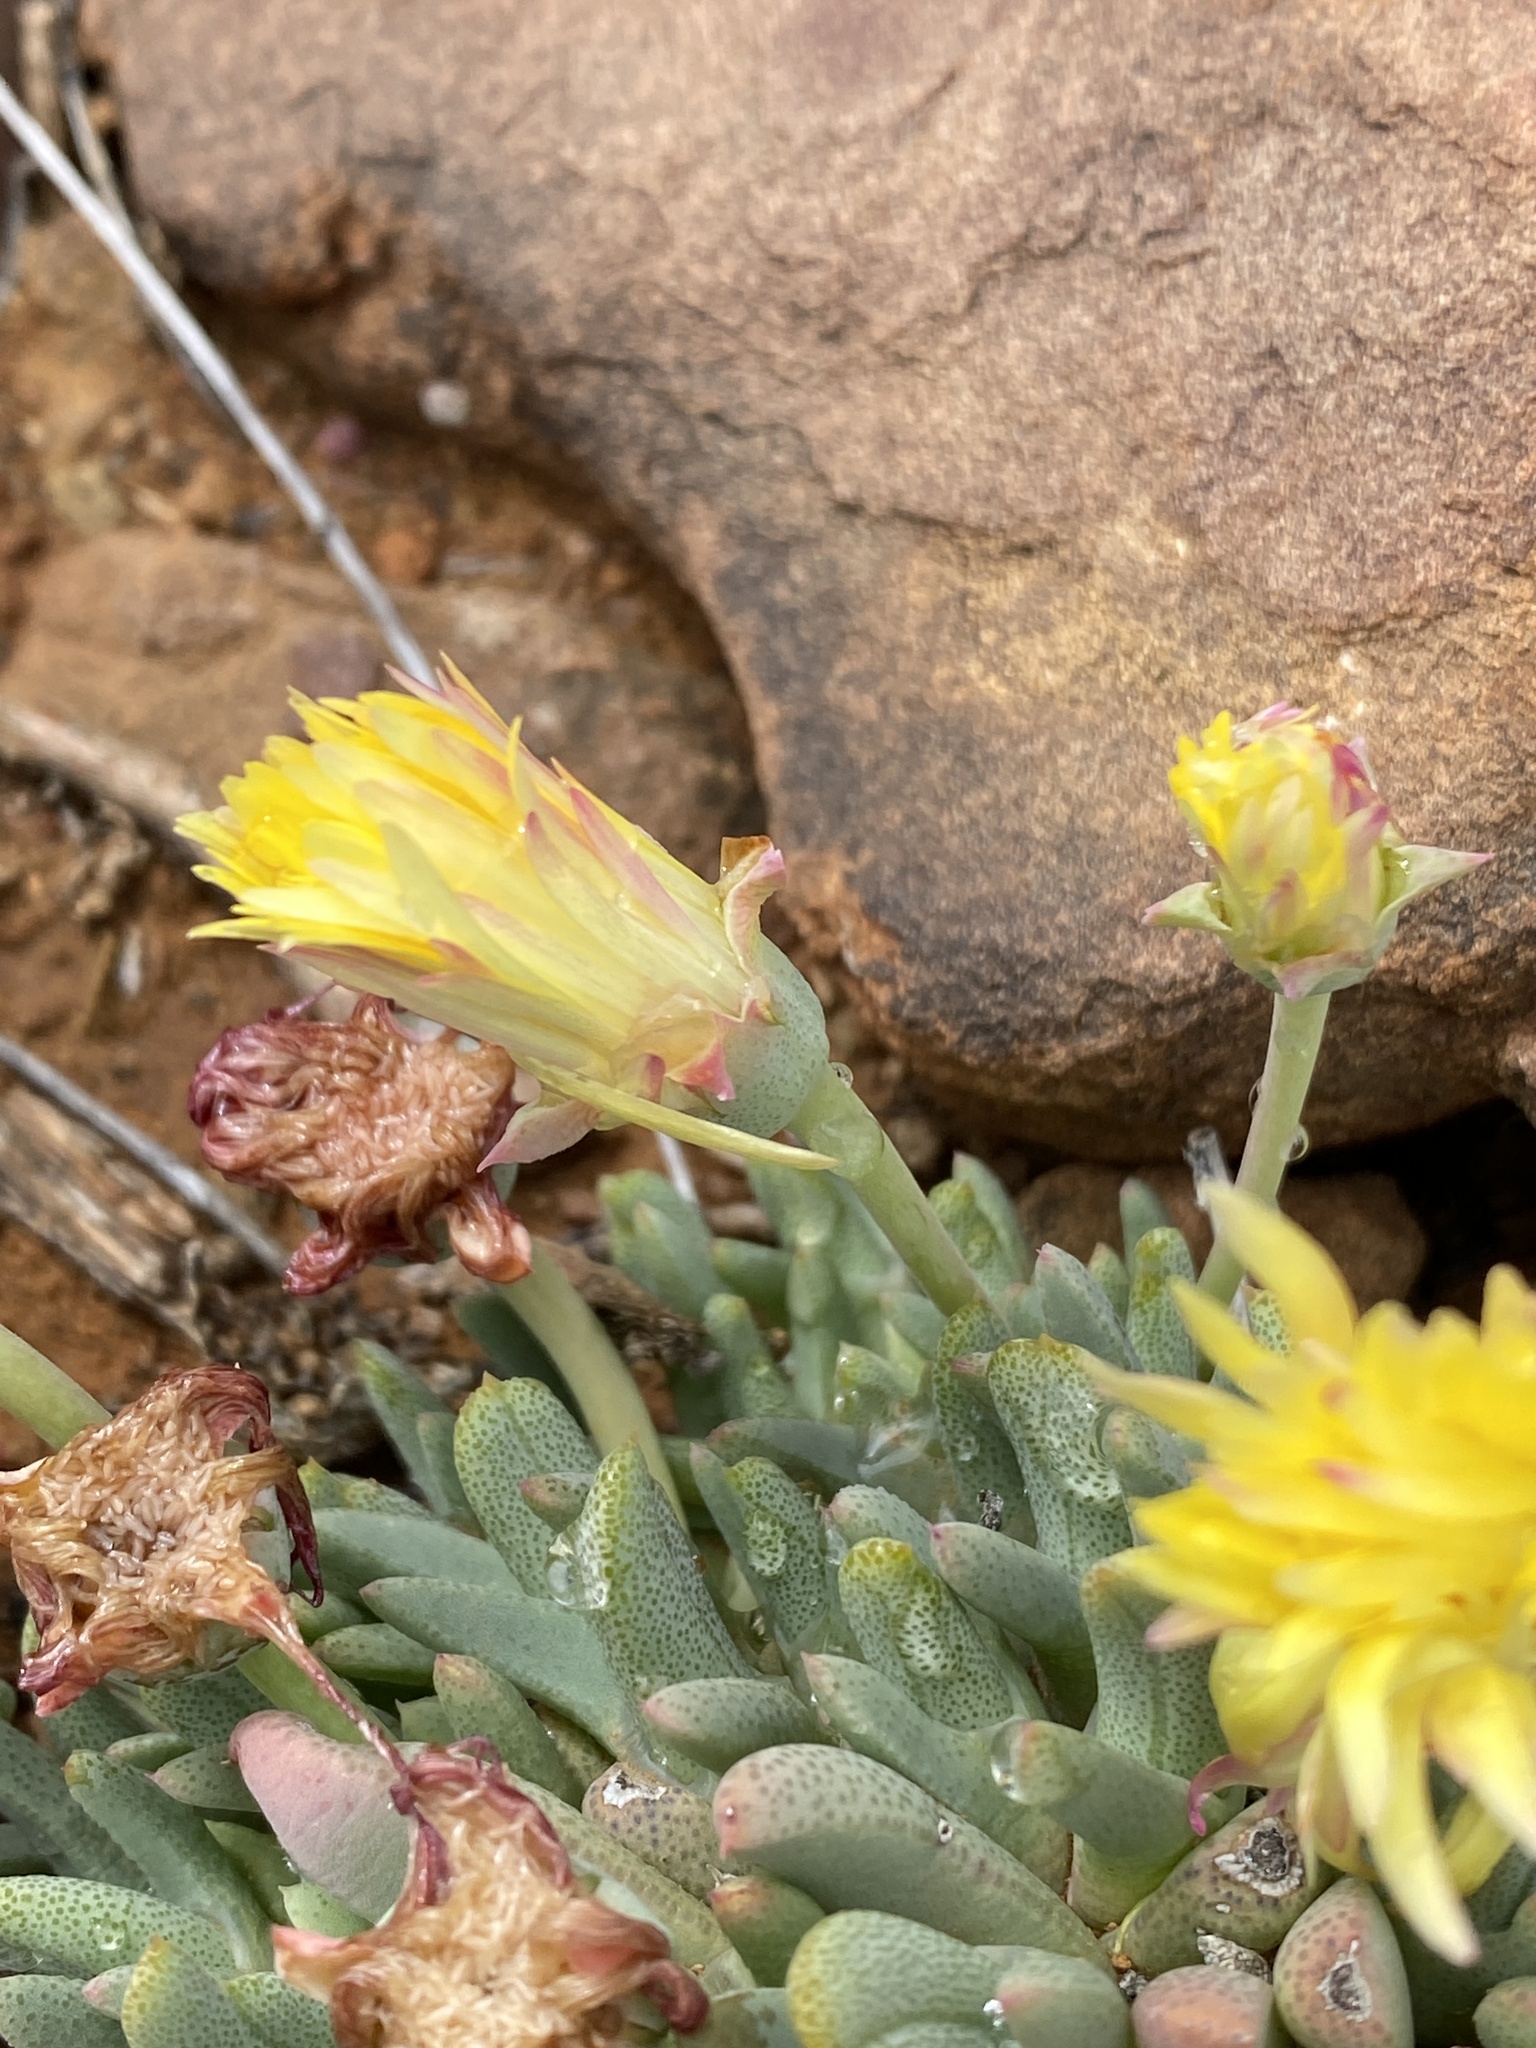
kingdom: Plantae
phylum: Tracheophyta
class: Magnoliopsida
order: Caryophyllales
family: Aizoaceae
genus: Cheiridopsis
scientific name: Cheiridopsis namaquensis
